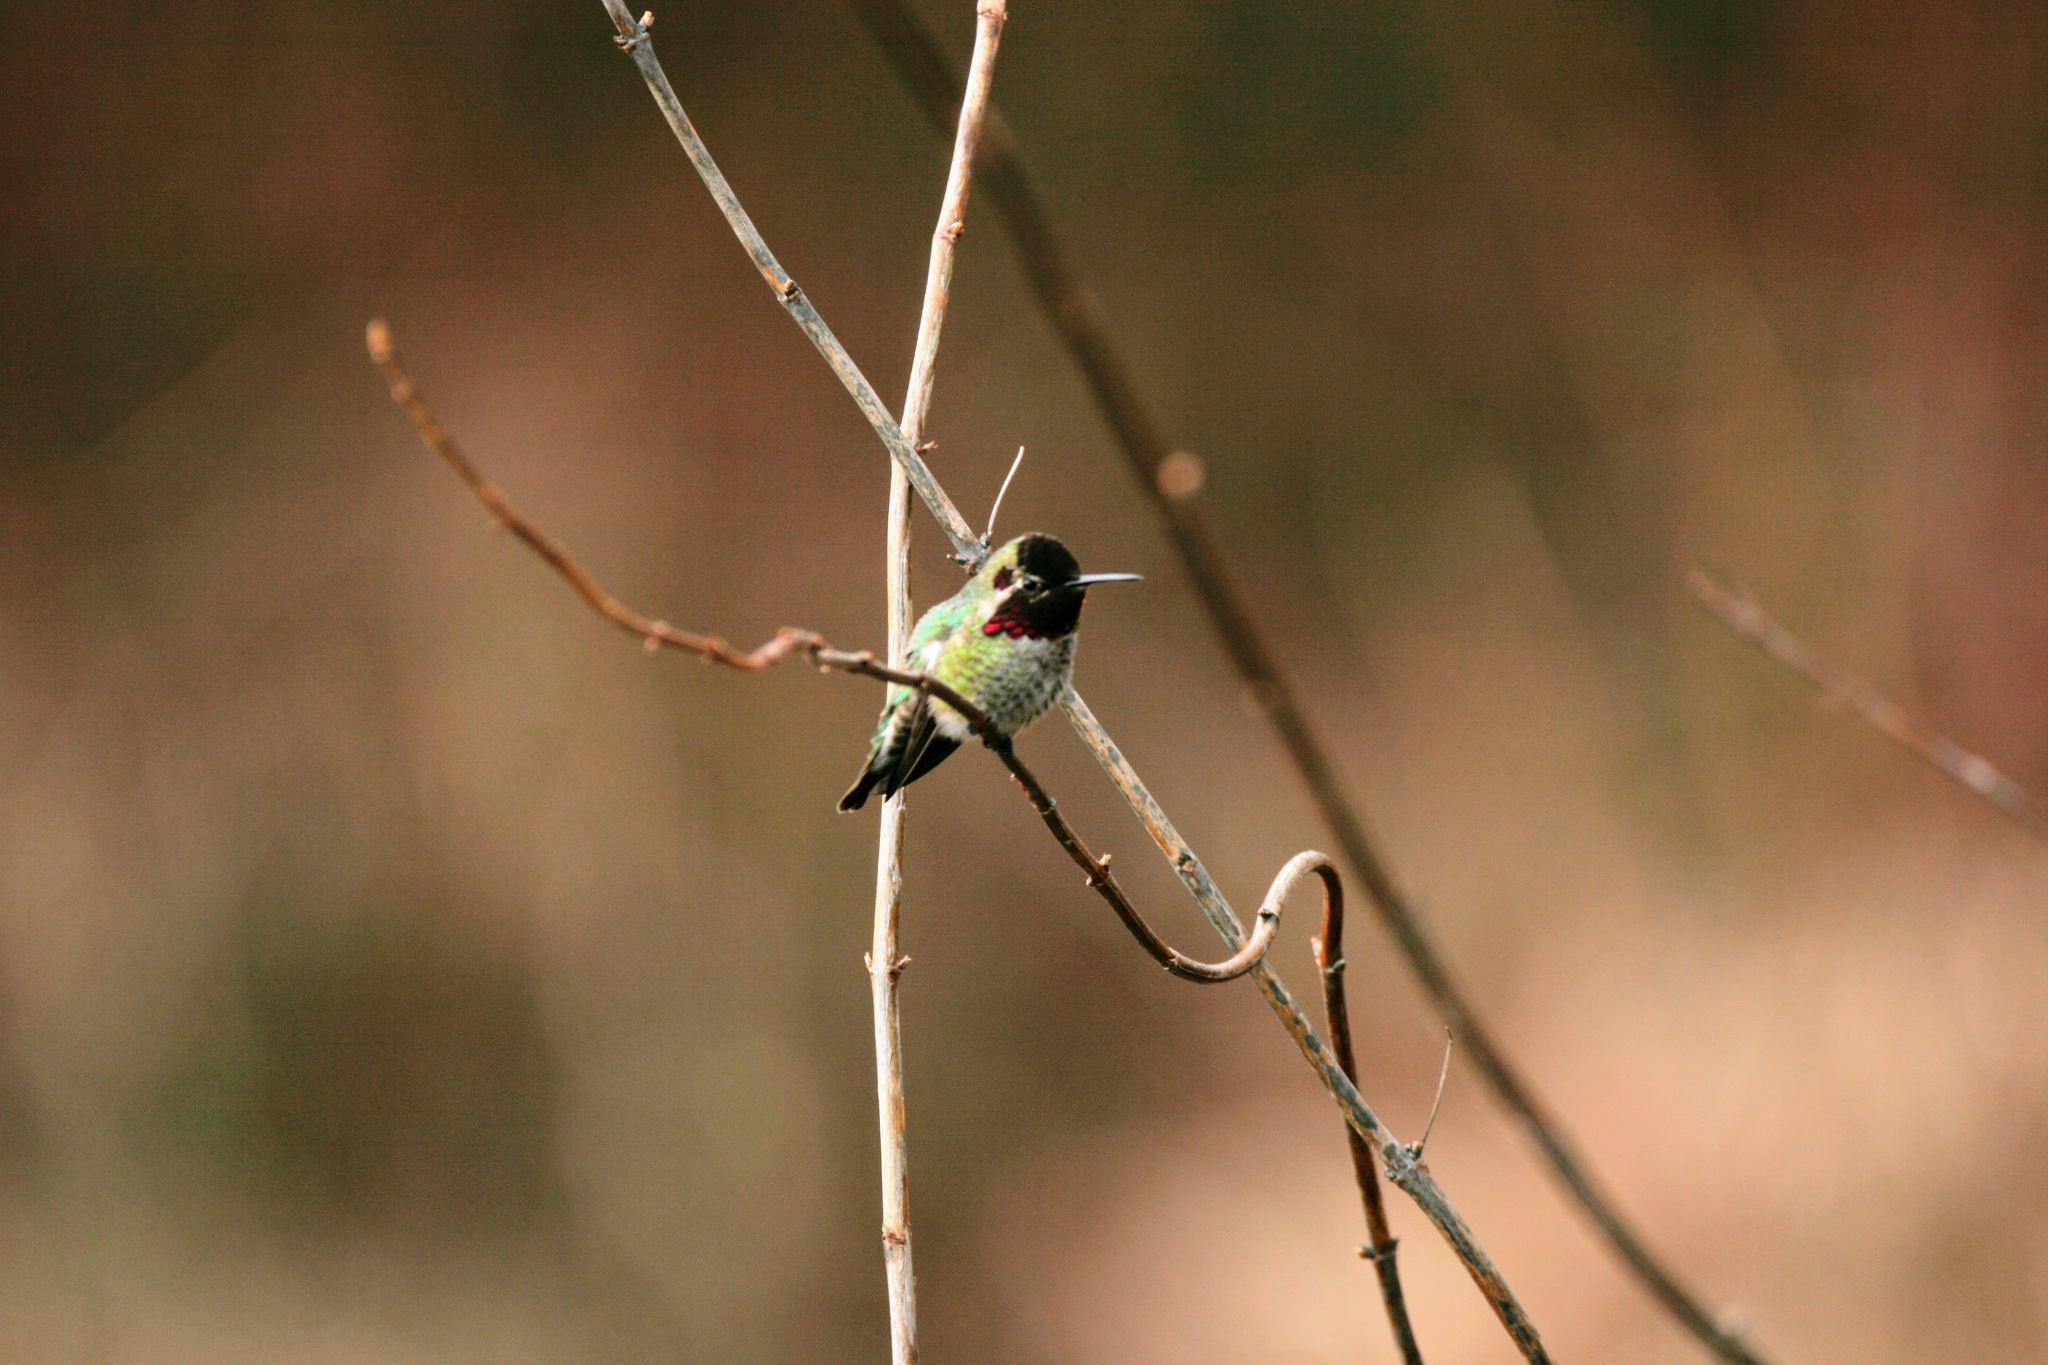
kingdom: Animalia
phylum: Chordata
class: Aves
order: Apodiformes
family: Trochilidae
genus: Calypte
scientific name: Calypte anna
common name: Anna's hummingbird
